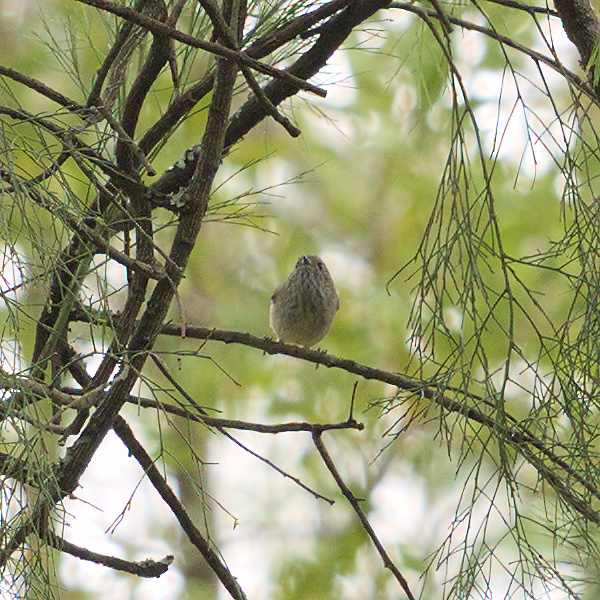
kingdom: Animalia
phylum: Chordata
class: Aves
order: Passeriformes
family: Acanthizidae
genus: Acanthiza
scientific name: Acanthiza pusilla
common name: Brown thornbill
